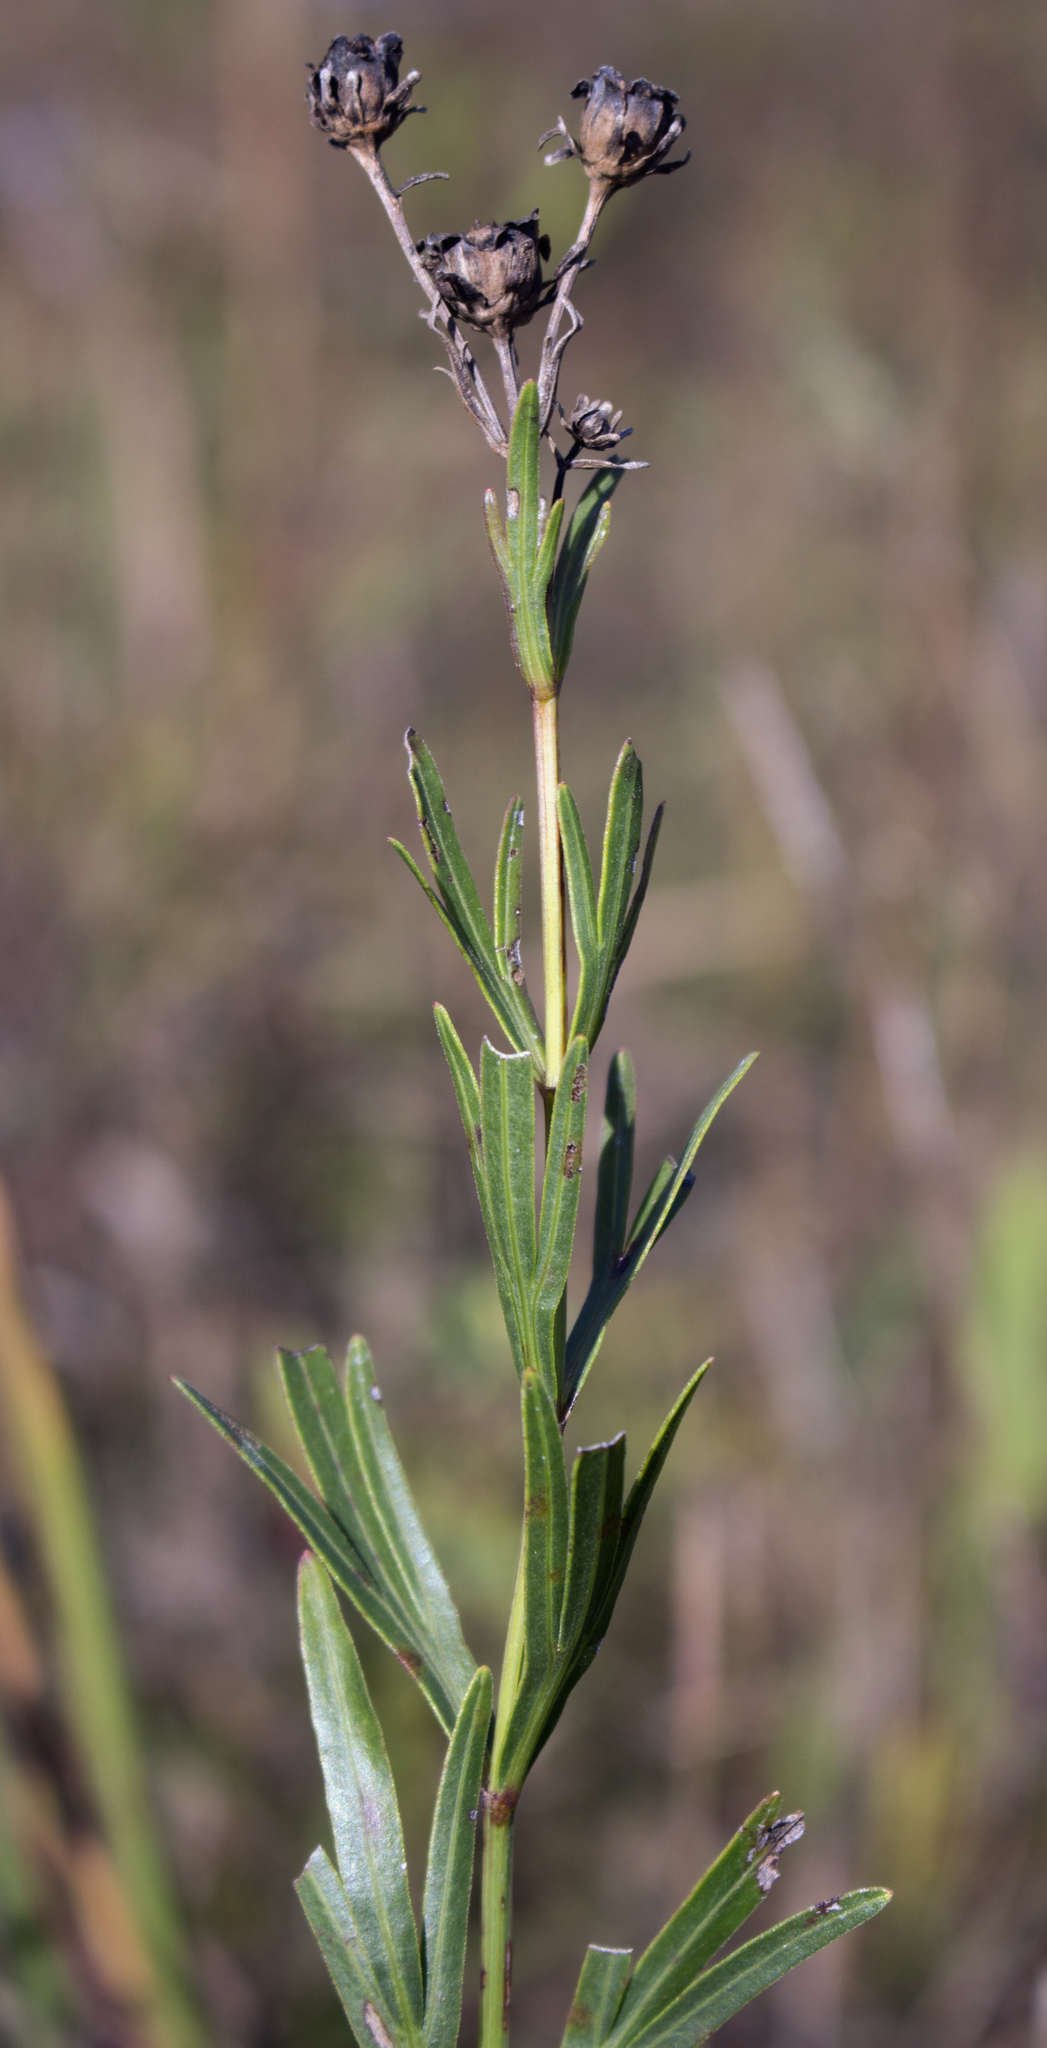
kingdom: Plantae
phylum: Tracheophyta
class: Magnoliopsida
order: Asterales
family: Asteraceae
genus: Coreopsis
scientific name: Coreopsis palmata
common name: Prairie coreopsis
